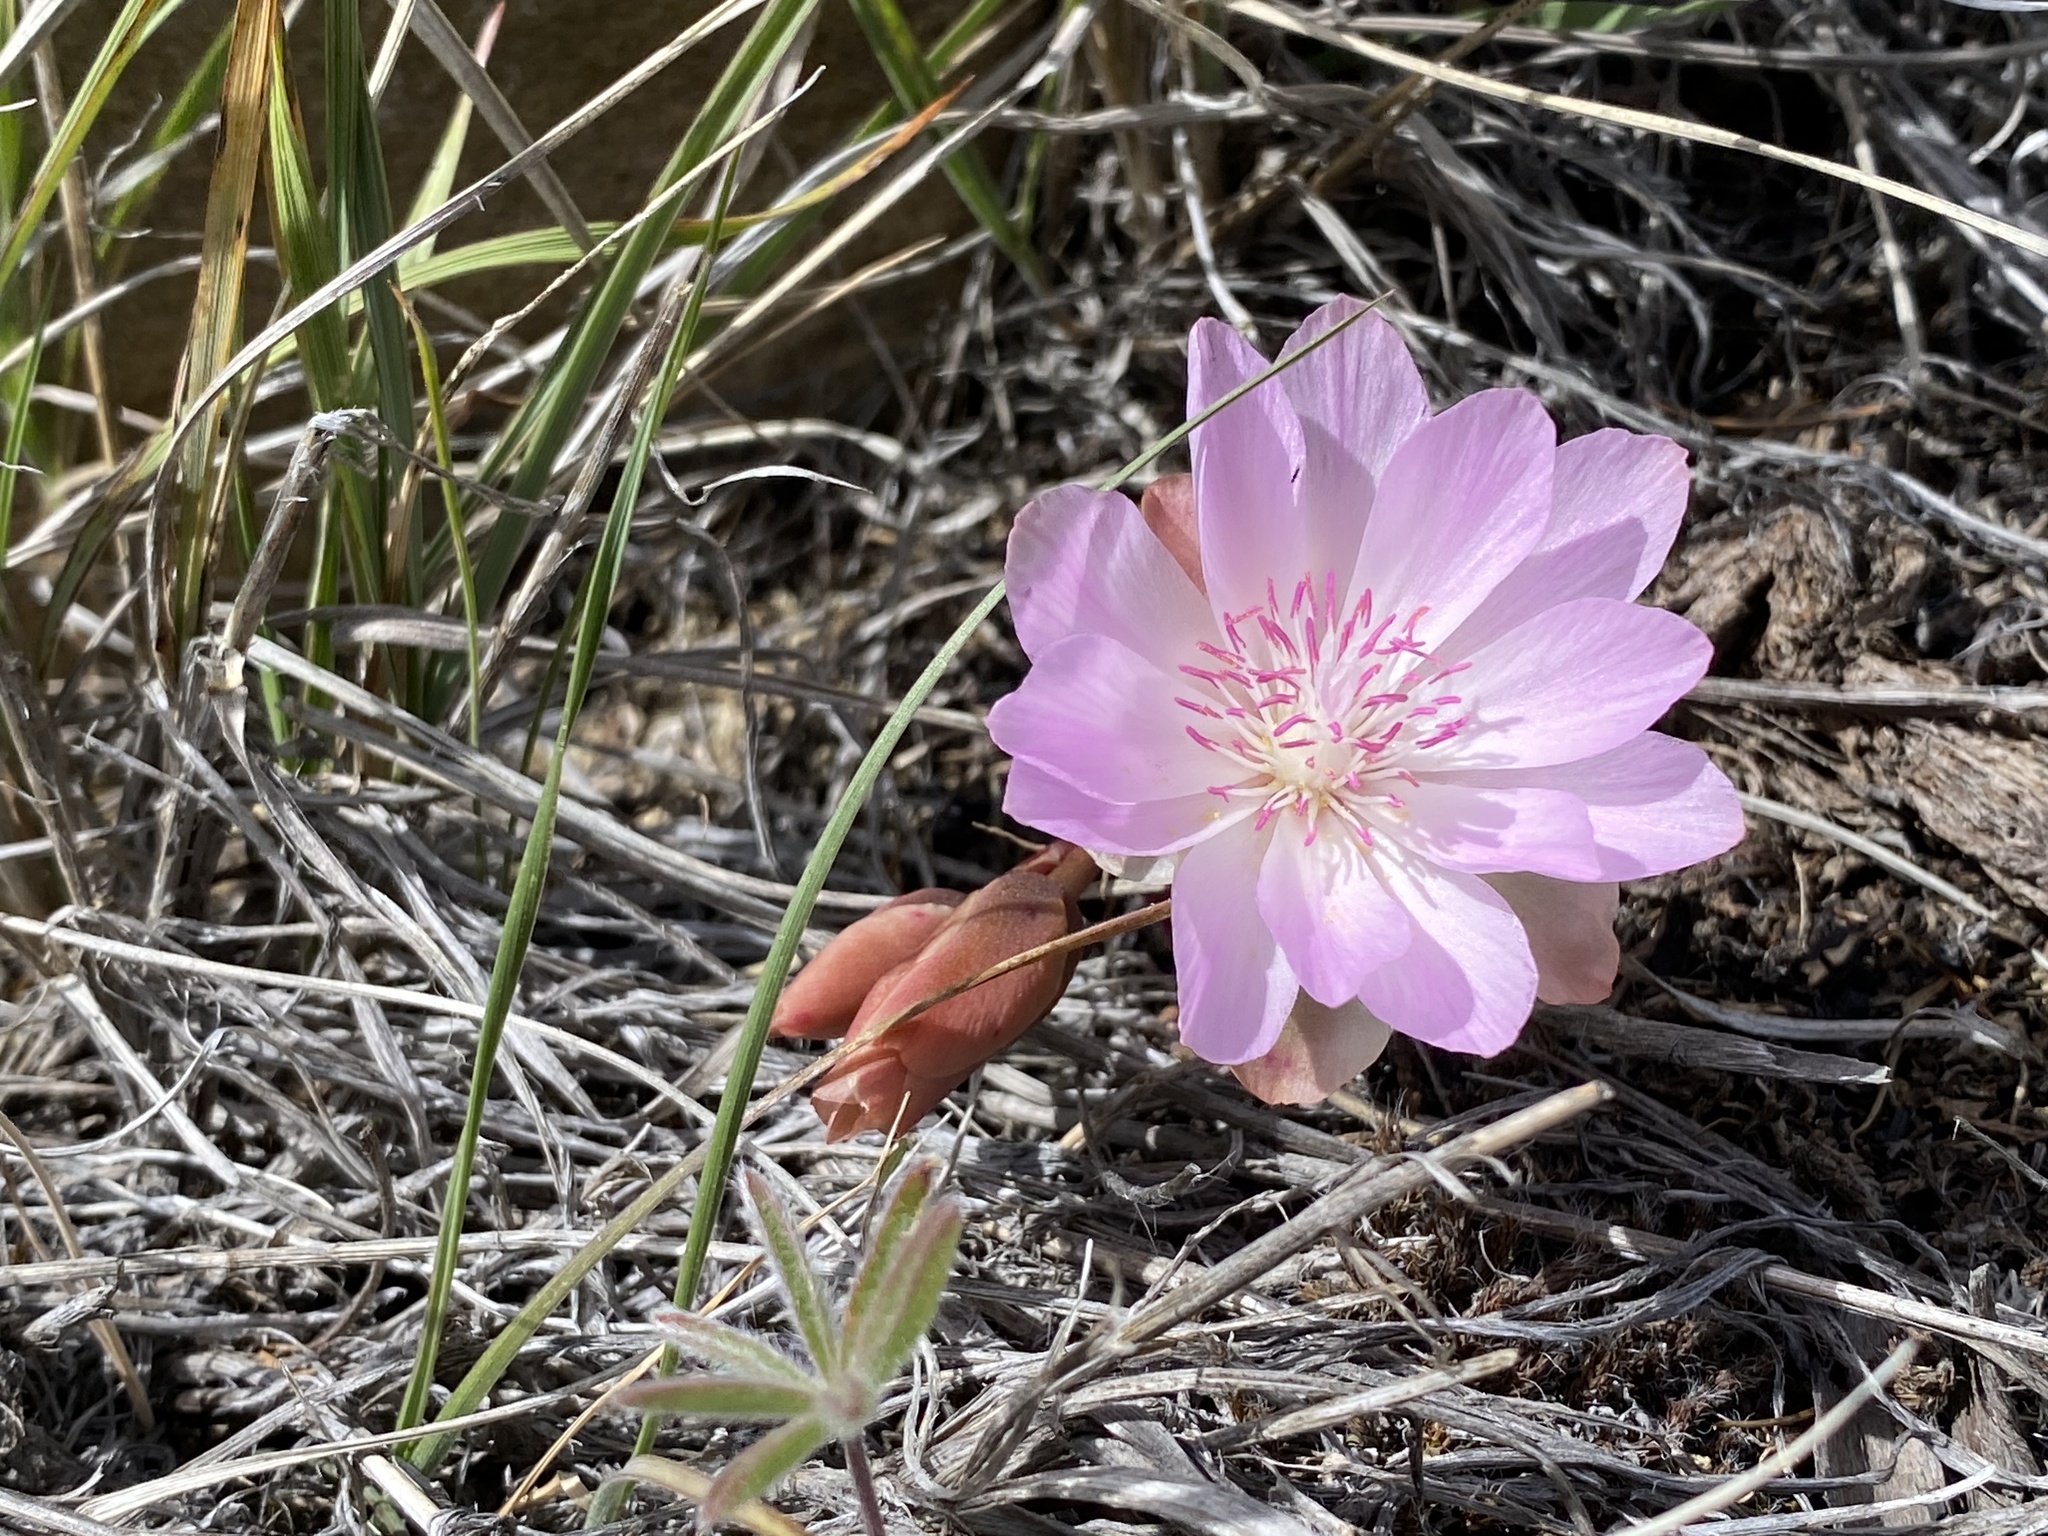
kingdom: Plantae
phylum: Tracheophyta
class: Magnoliopsida
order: Caryophyllales
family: Montiaceae
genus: Lewisia
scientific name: Lewisia rediviva
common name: Bitter-root
